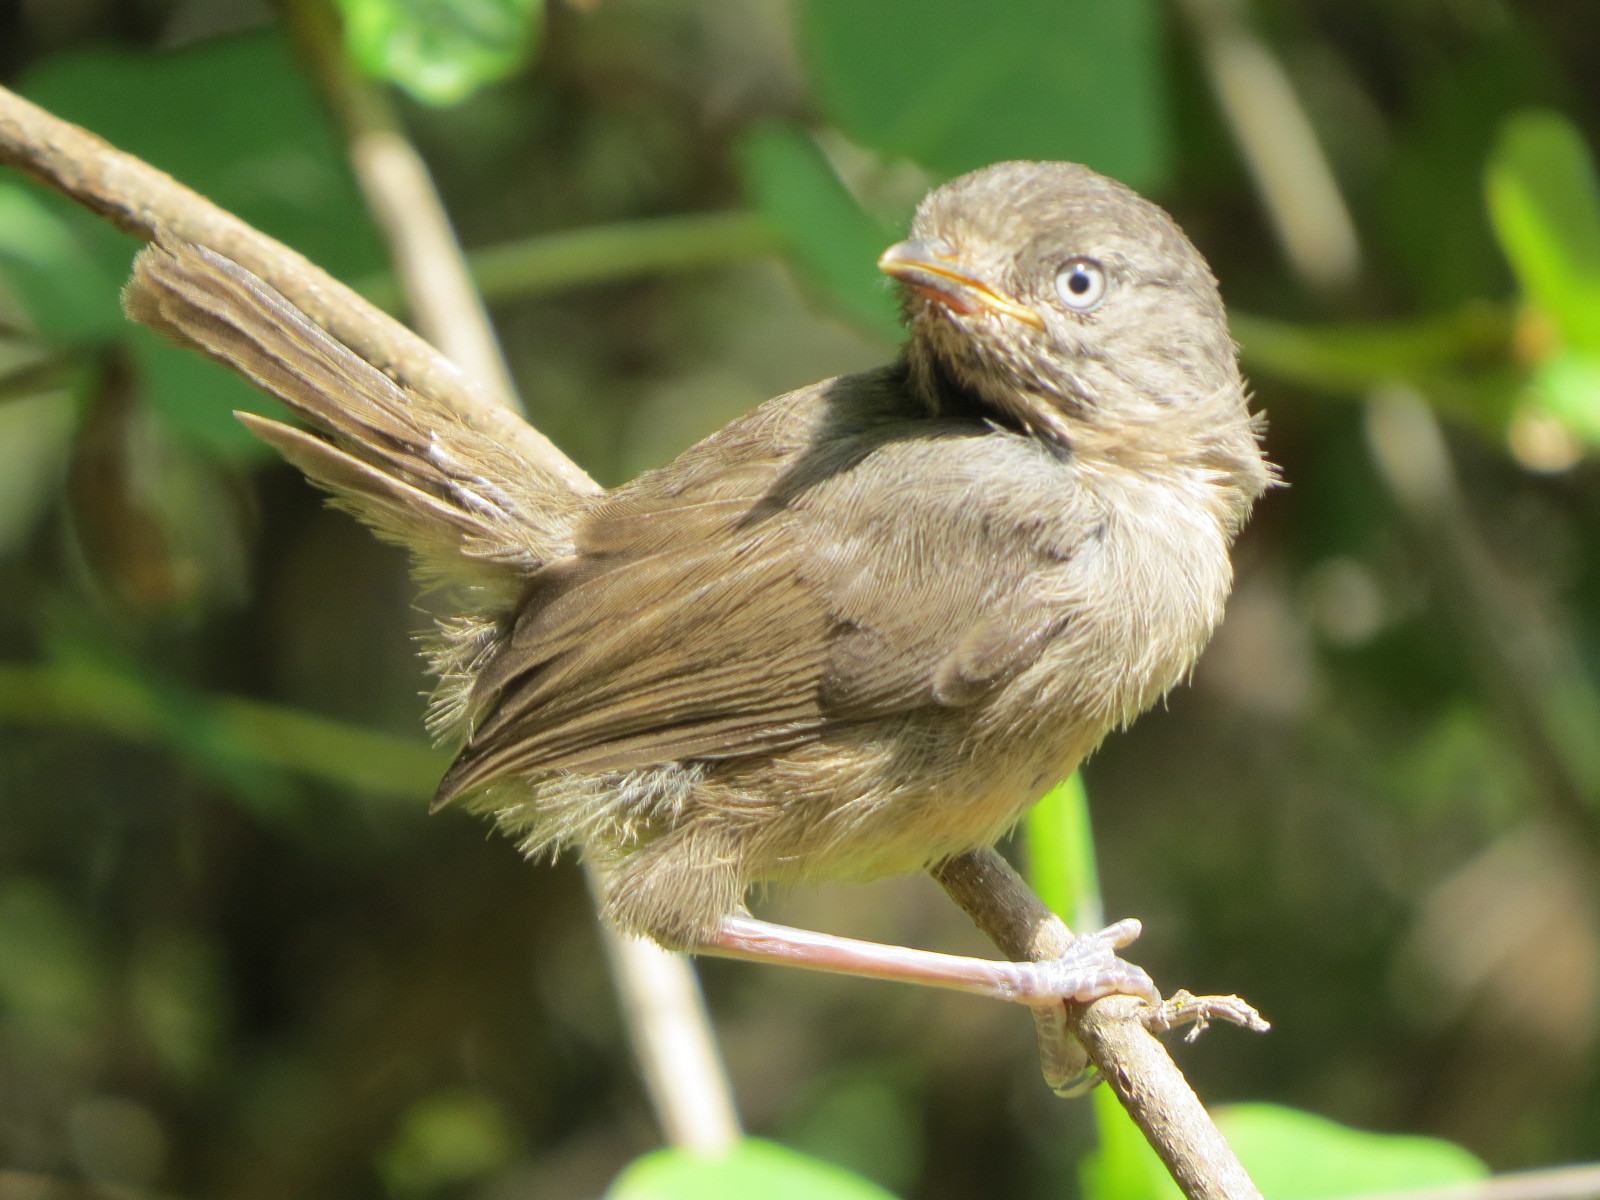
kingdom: Animalia
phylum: Chordata
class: Aves
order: Passeriformes
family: Sylviidae
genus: Chamaea
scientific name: Chamaea fasciata
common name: Wrentit
